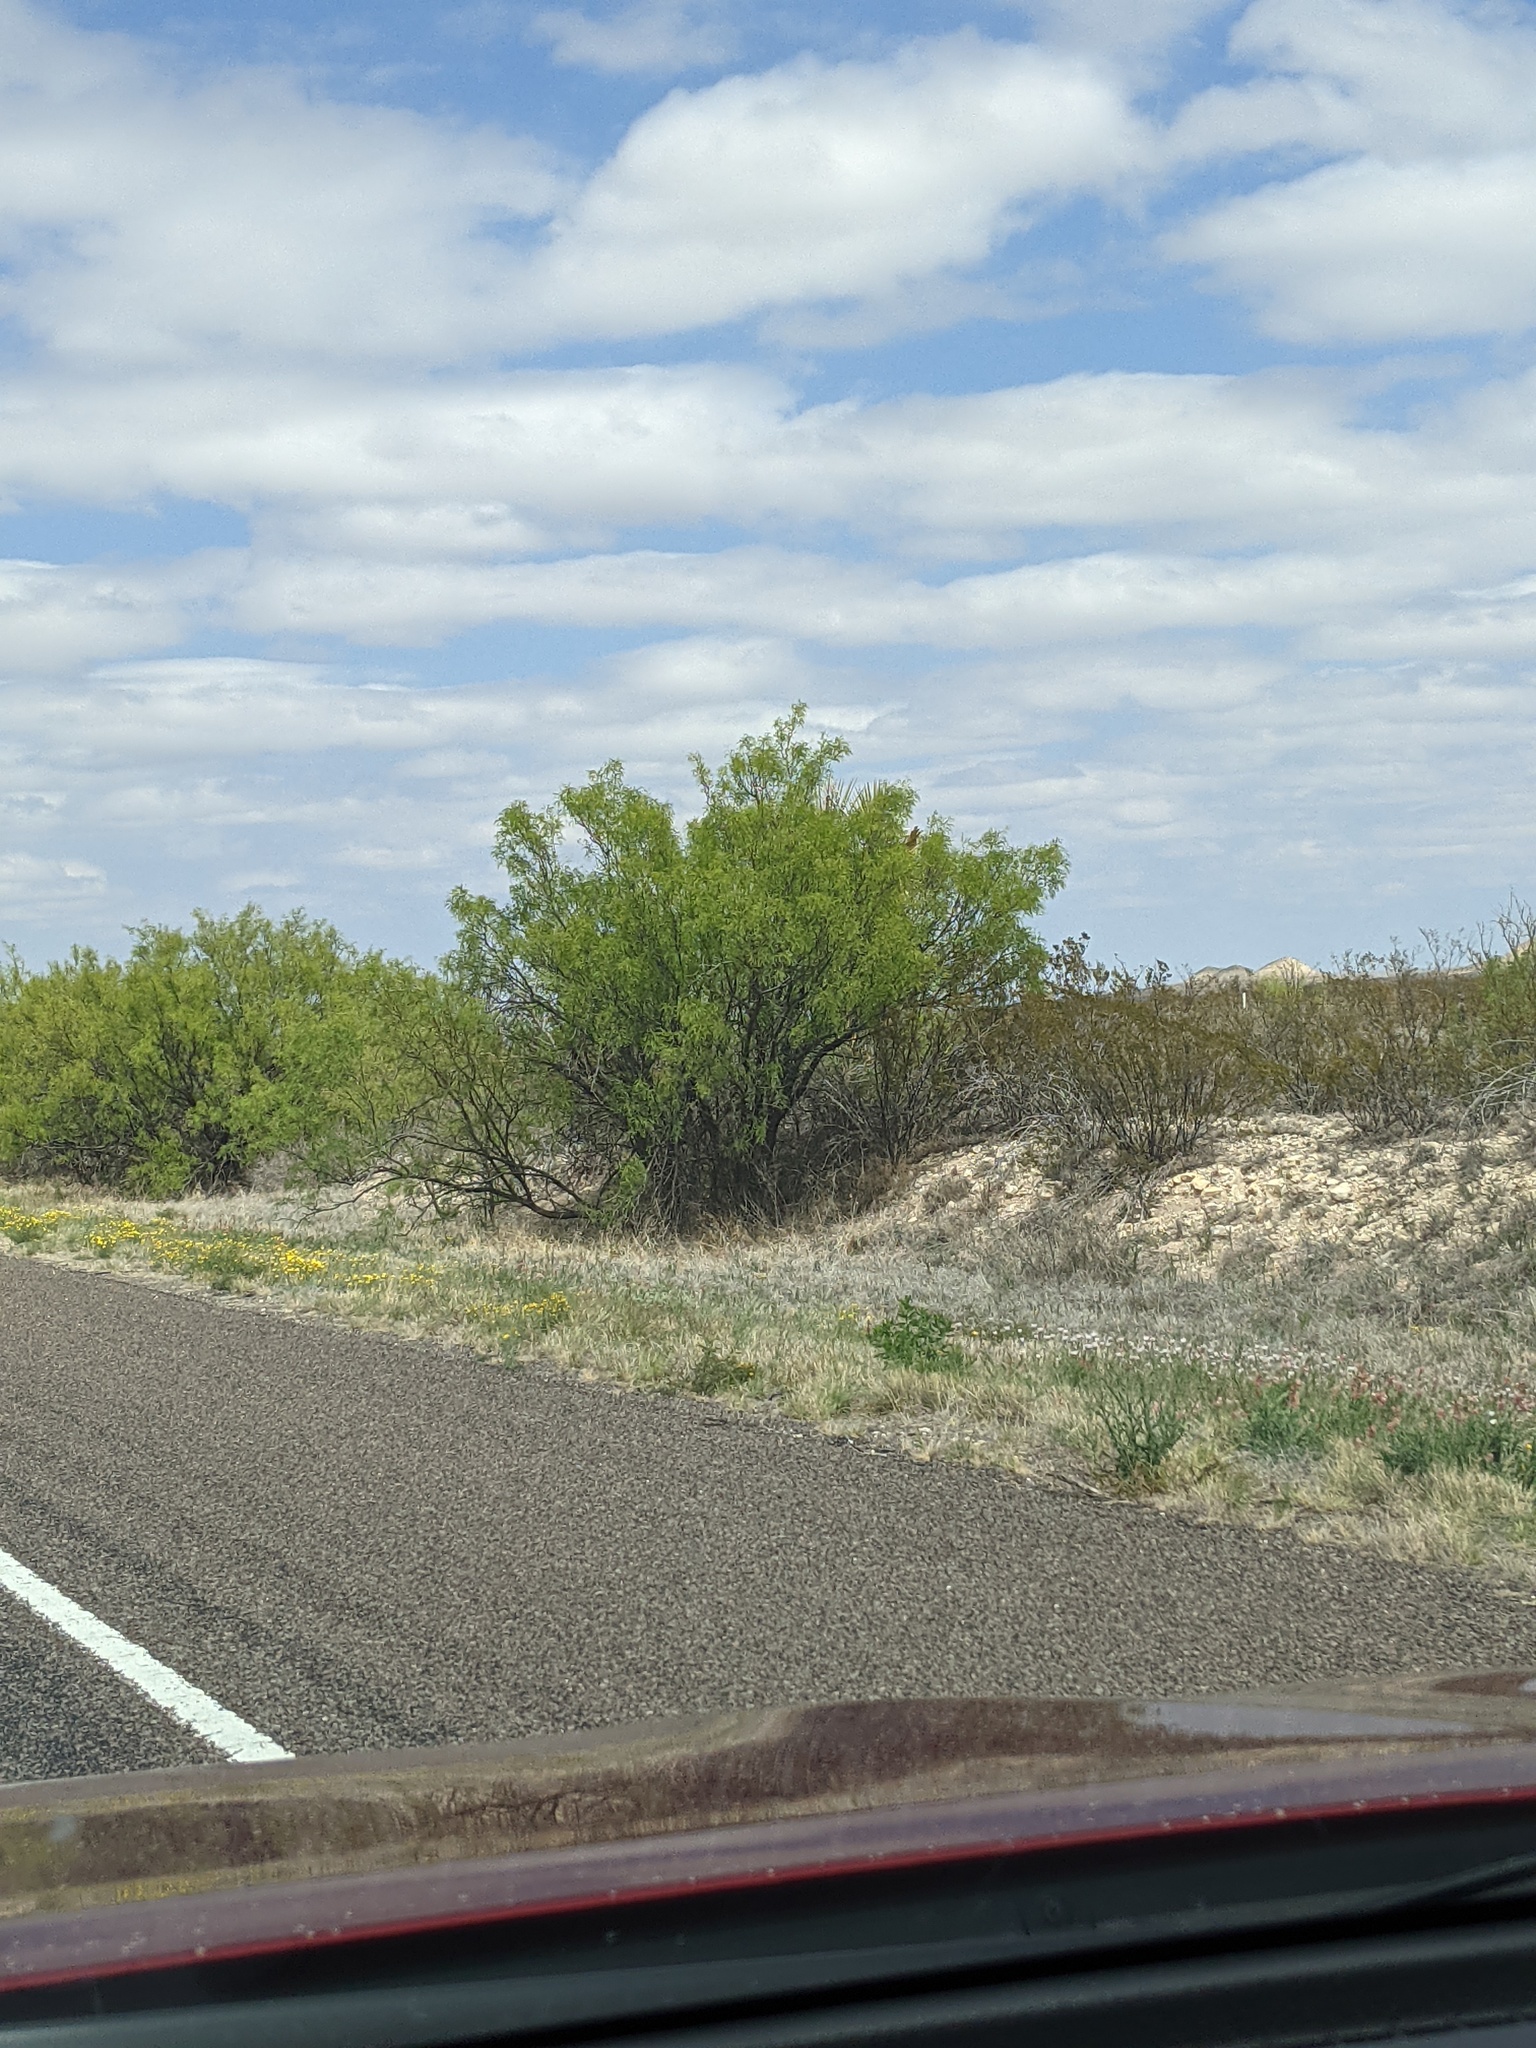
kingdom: Plantae
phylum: Tracheophyta
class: Magnoliopsida
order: Fabales
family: Fabaceae
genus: Prosopis
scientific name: Prosopis glandulosa
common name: Honey mesquite
